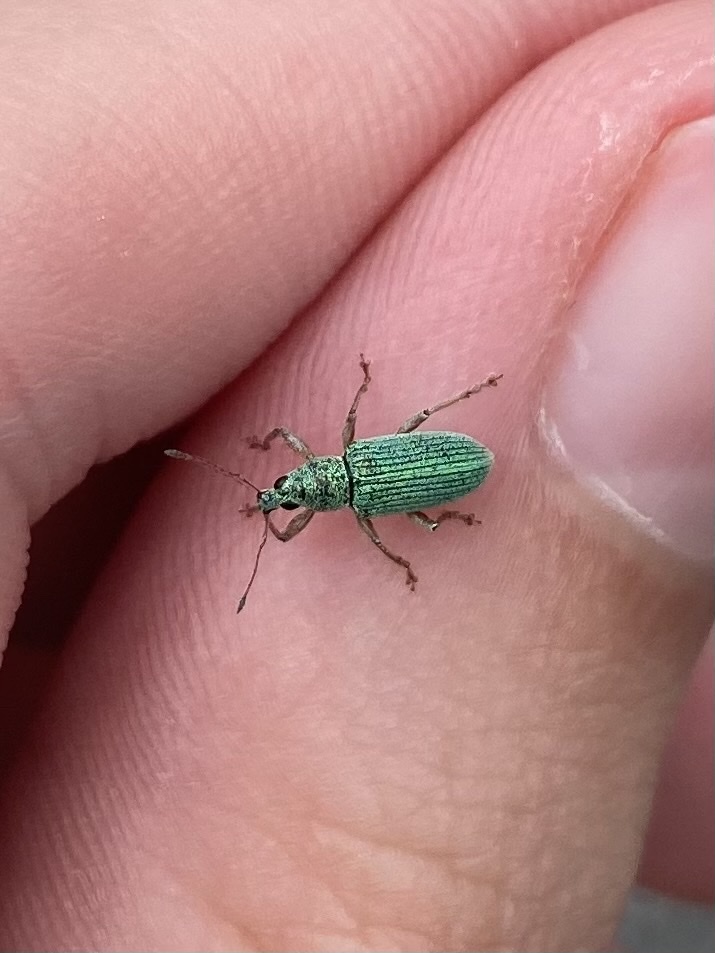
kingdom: Animalia
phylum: Arthropoda
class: Insecta
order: Coleoptera
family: Curculionidae
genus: Polydrusus
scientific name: Polydrusus formosus
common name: Weevil
